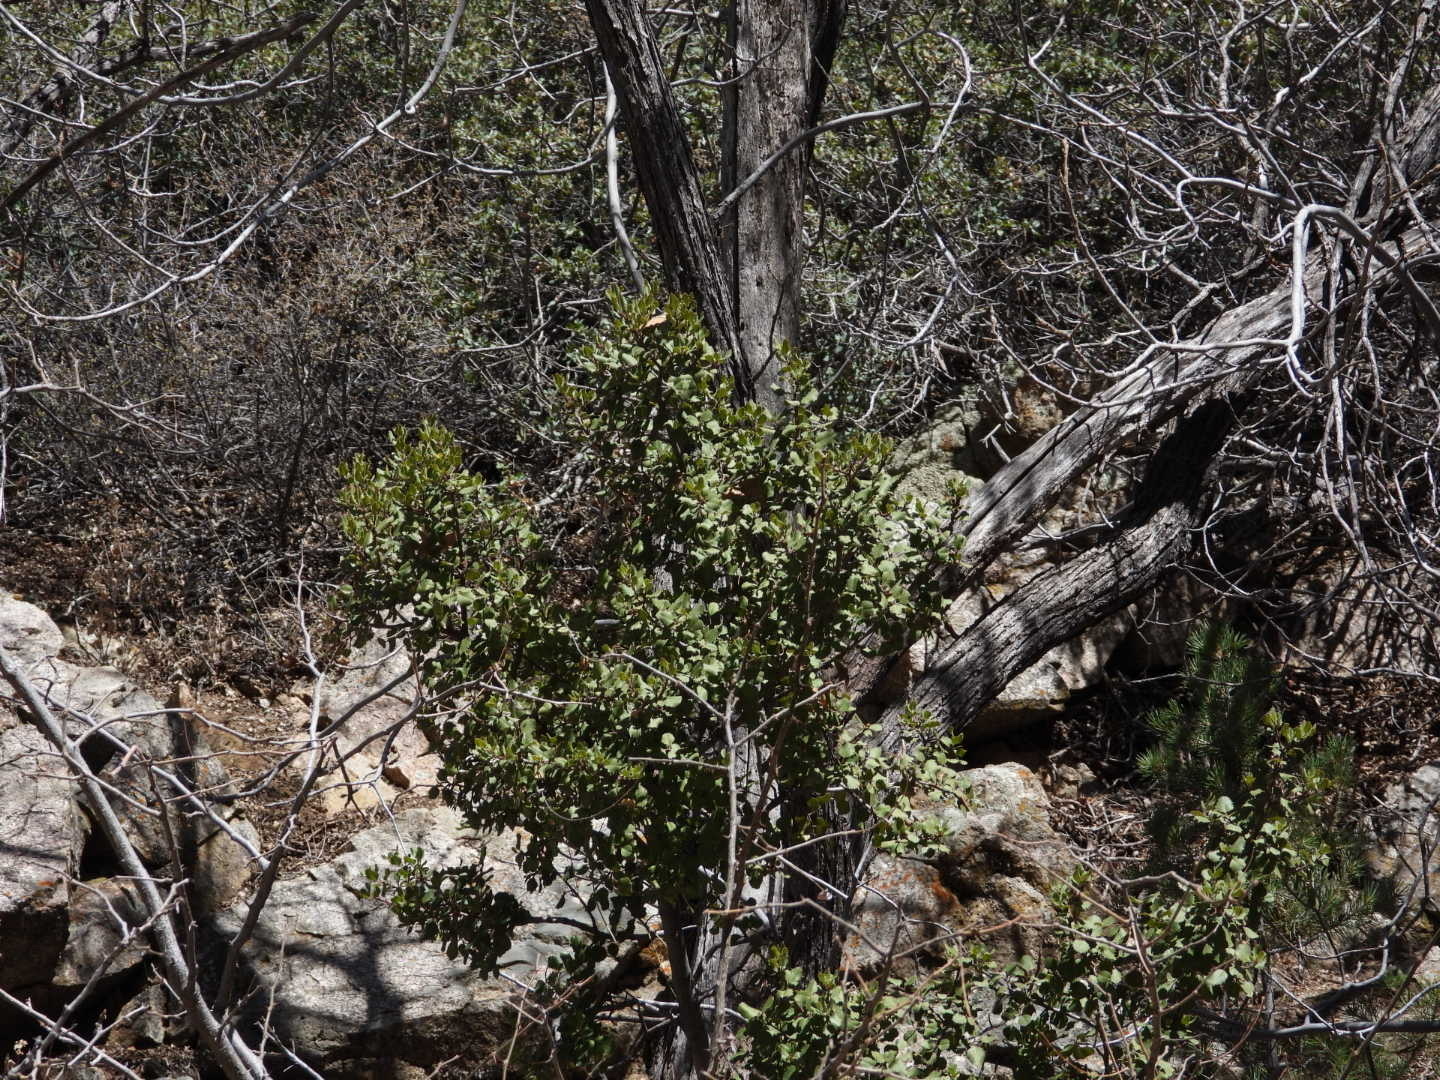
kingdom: Plantae
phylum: Tracheophyta
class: Magnoliopsida
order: Rosales
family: Rhamnaceae
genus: Endotropis
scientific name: Endotropis crocea
